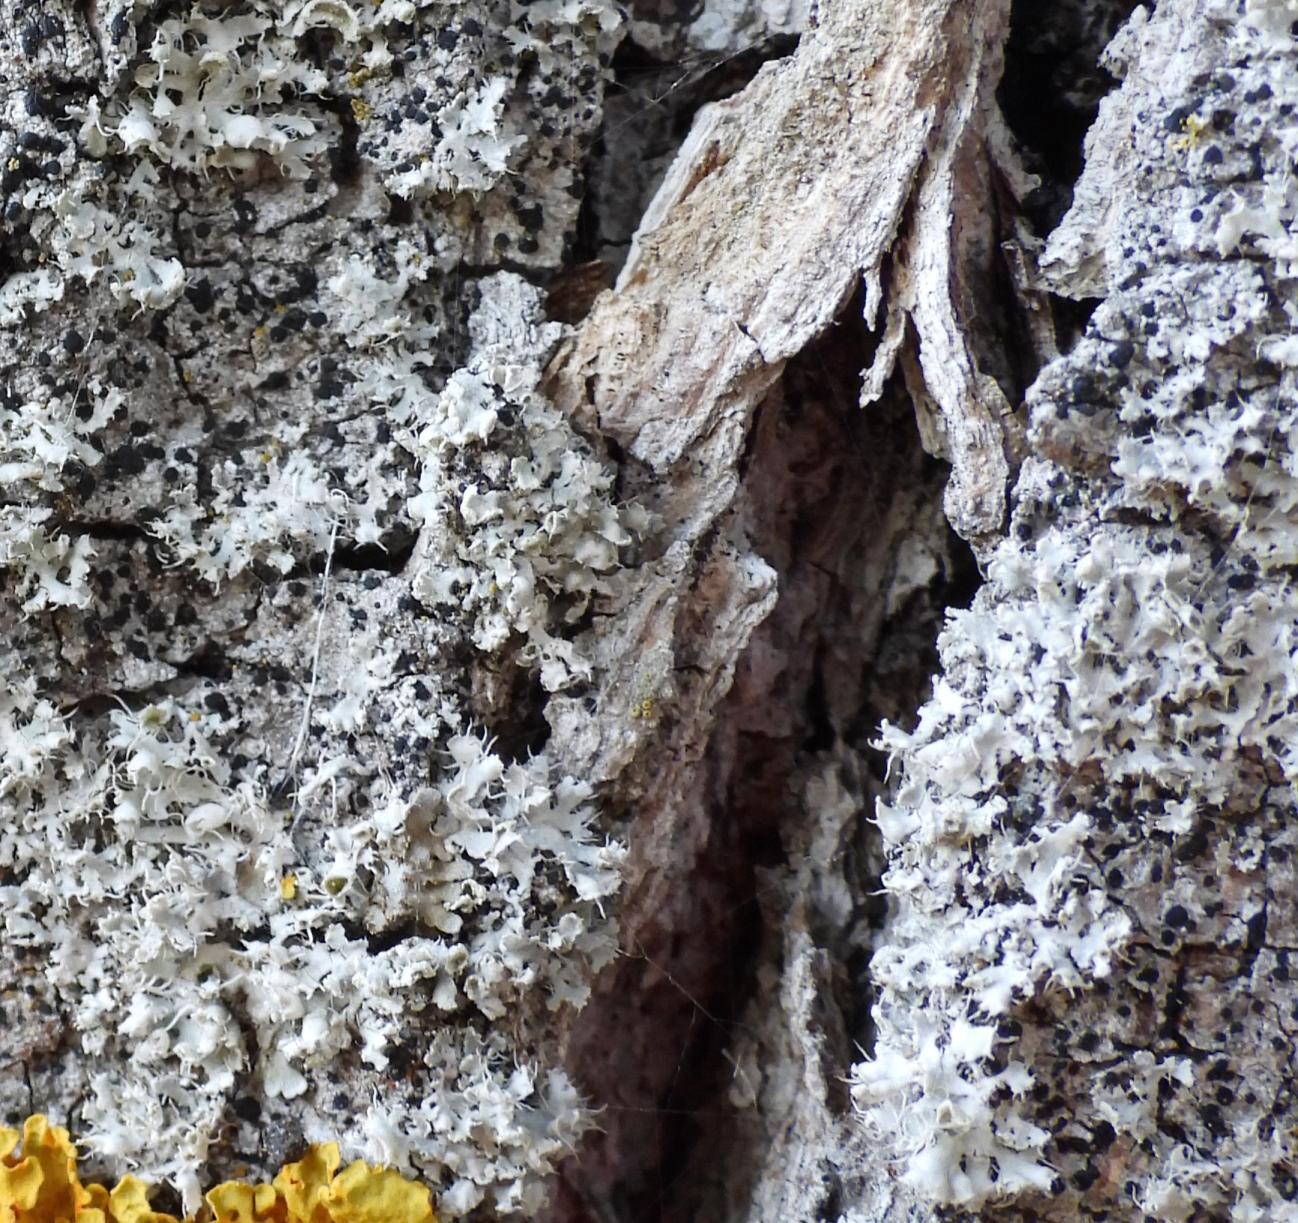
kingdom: Fungi
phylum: Ascomycota
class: Lecanoromycetes
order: Caliciales
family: Physciaceae
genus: Physcia
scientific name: Physcia adscendens
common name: Hooded rosette lichen
